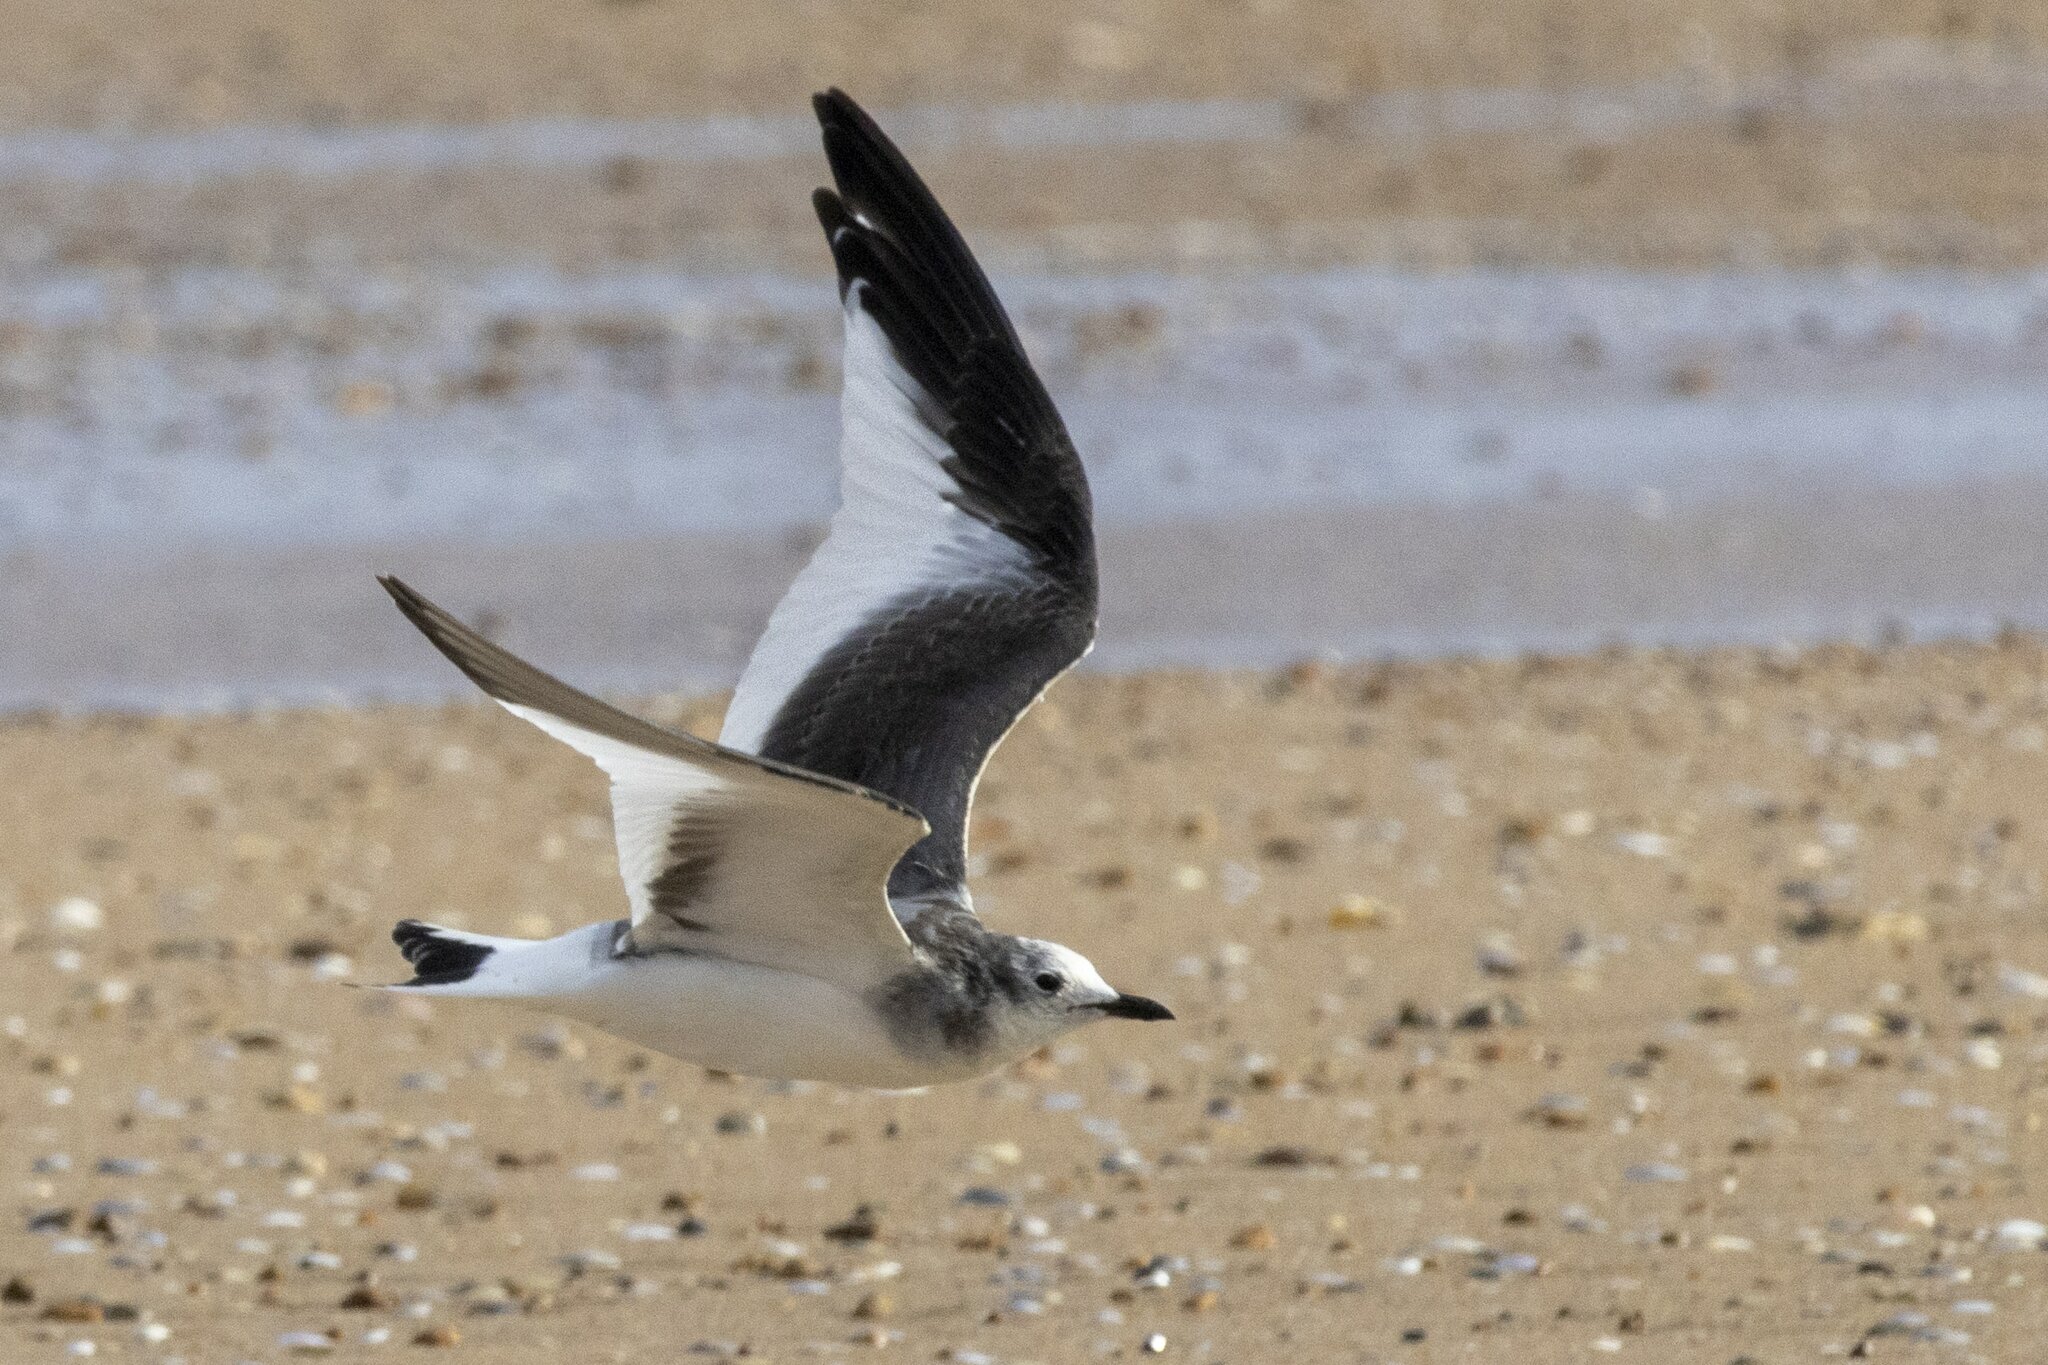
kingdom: Animalia
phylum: Chordata
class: Aves
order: Charadriiformes
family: Laridae
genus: Xema
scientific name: Xema sabini
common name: Sabine's gull
